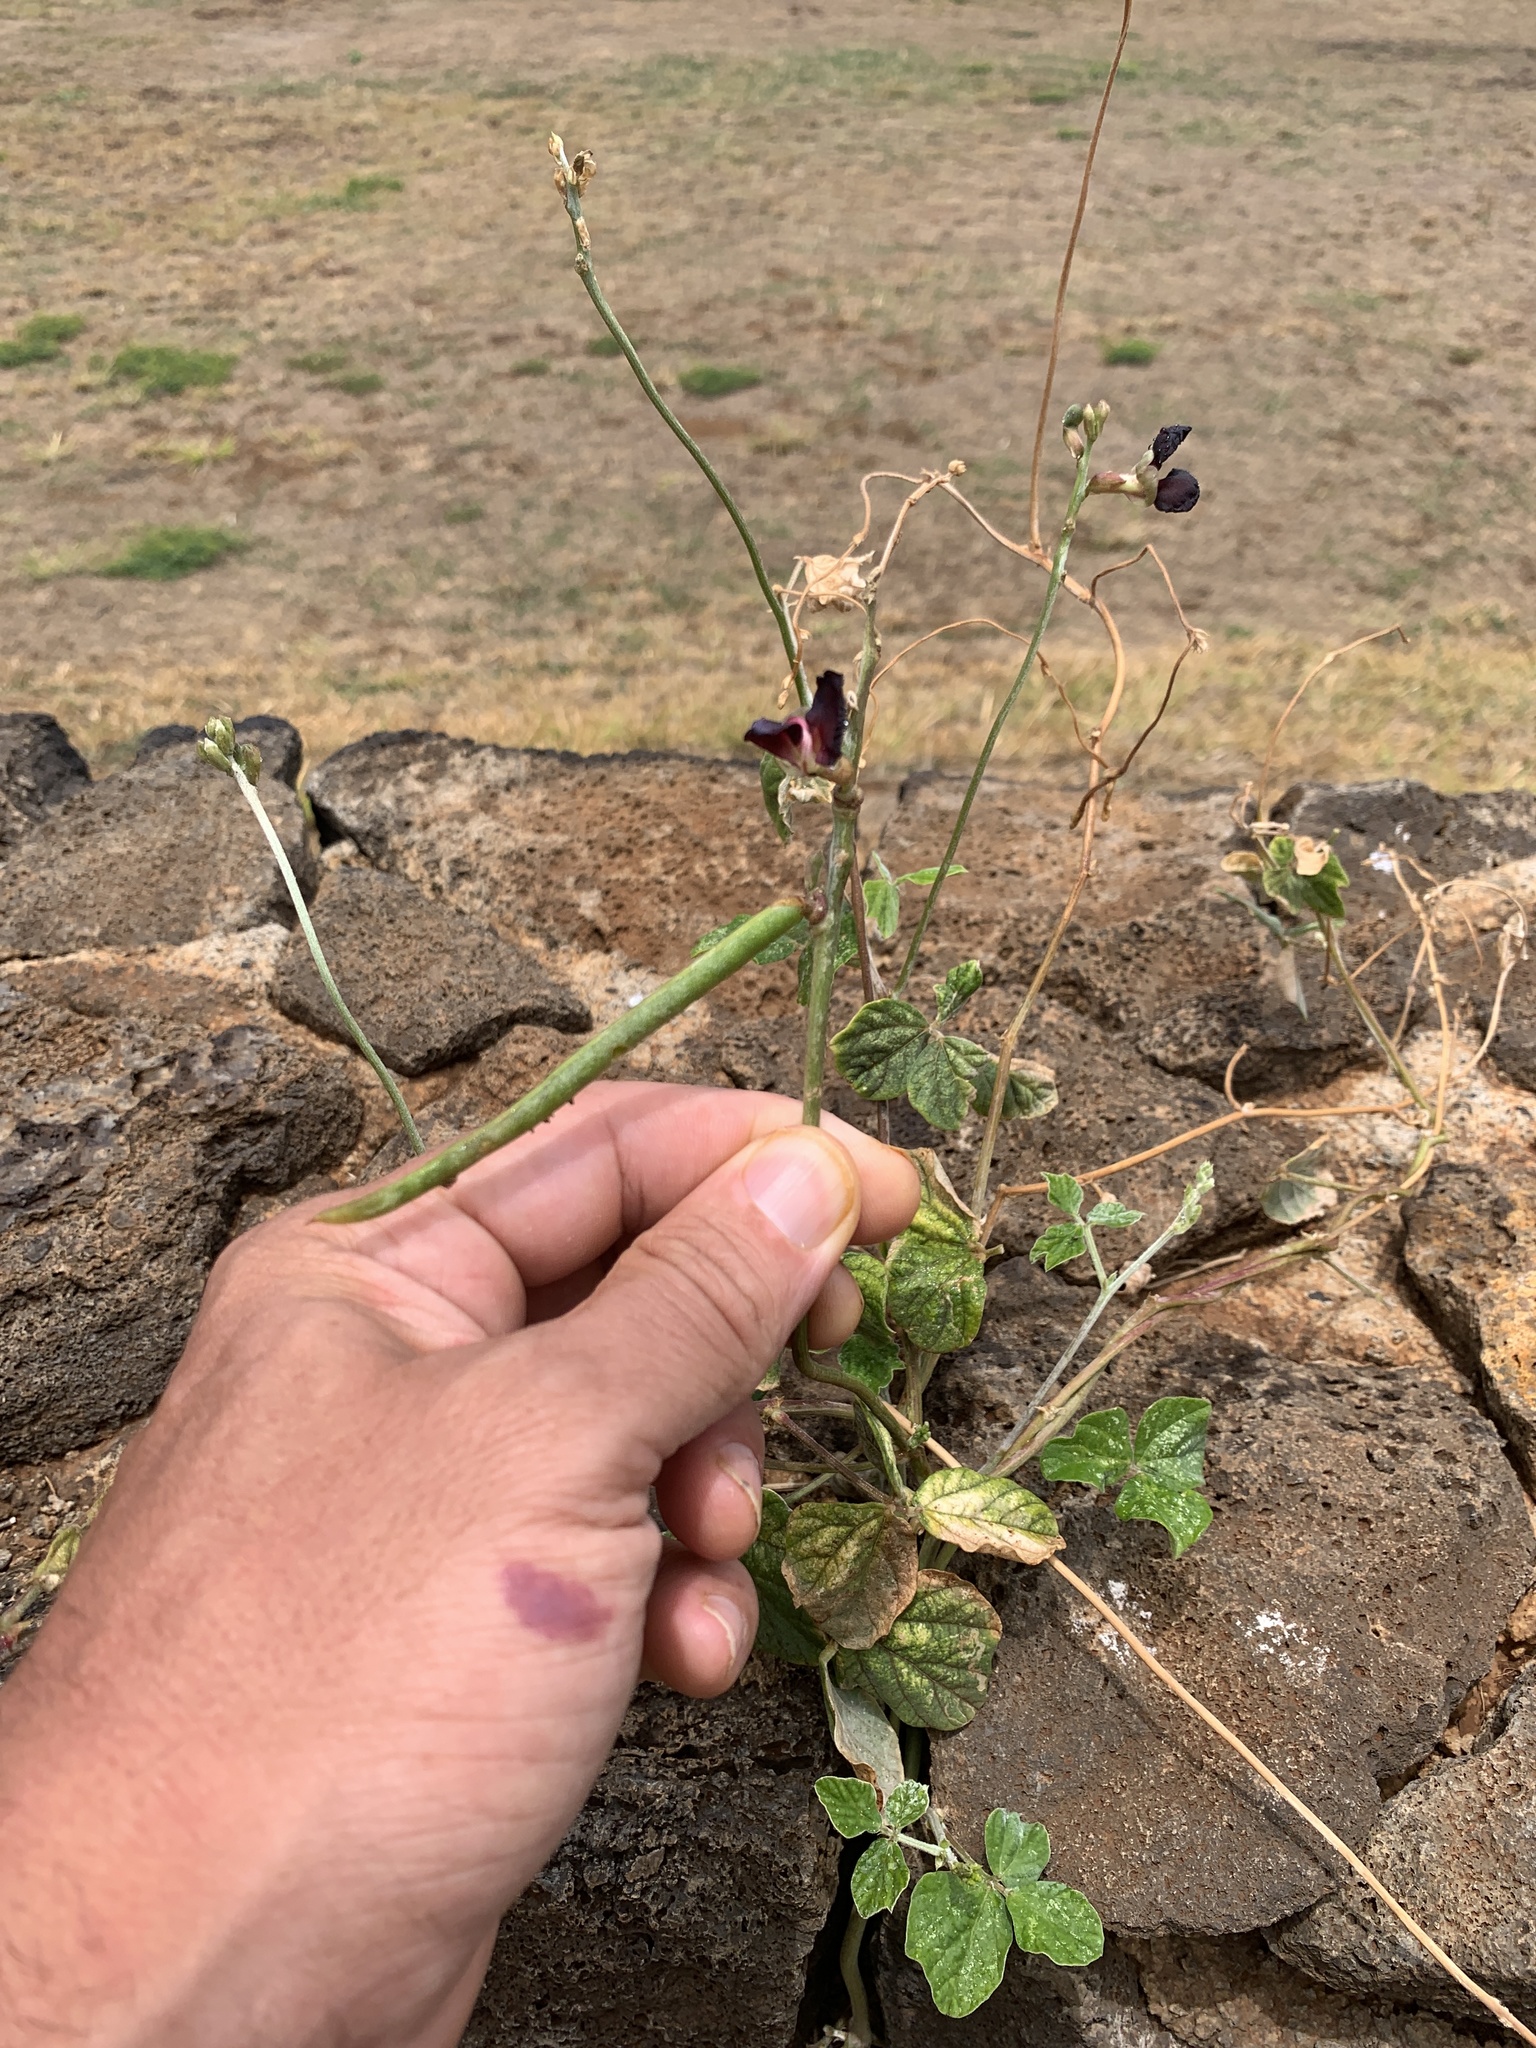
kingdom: Plantae
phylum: Tracheophyta
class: Magnoliopsida
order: Fabales
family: Fabaceae
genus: Macroptilium
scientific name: Macroptilium atropurpureum
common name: Purple bushbean
